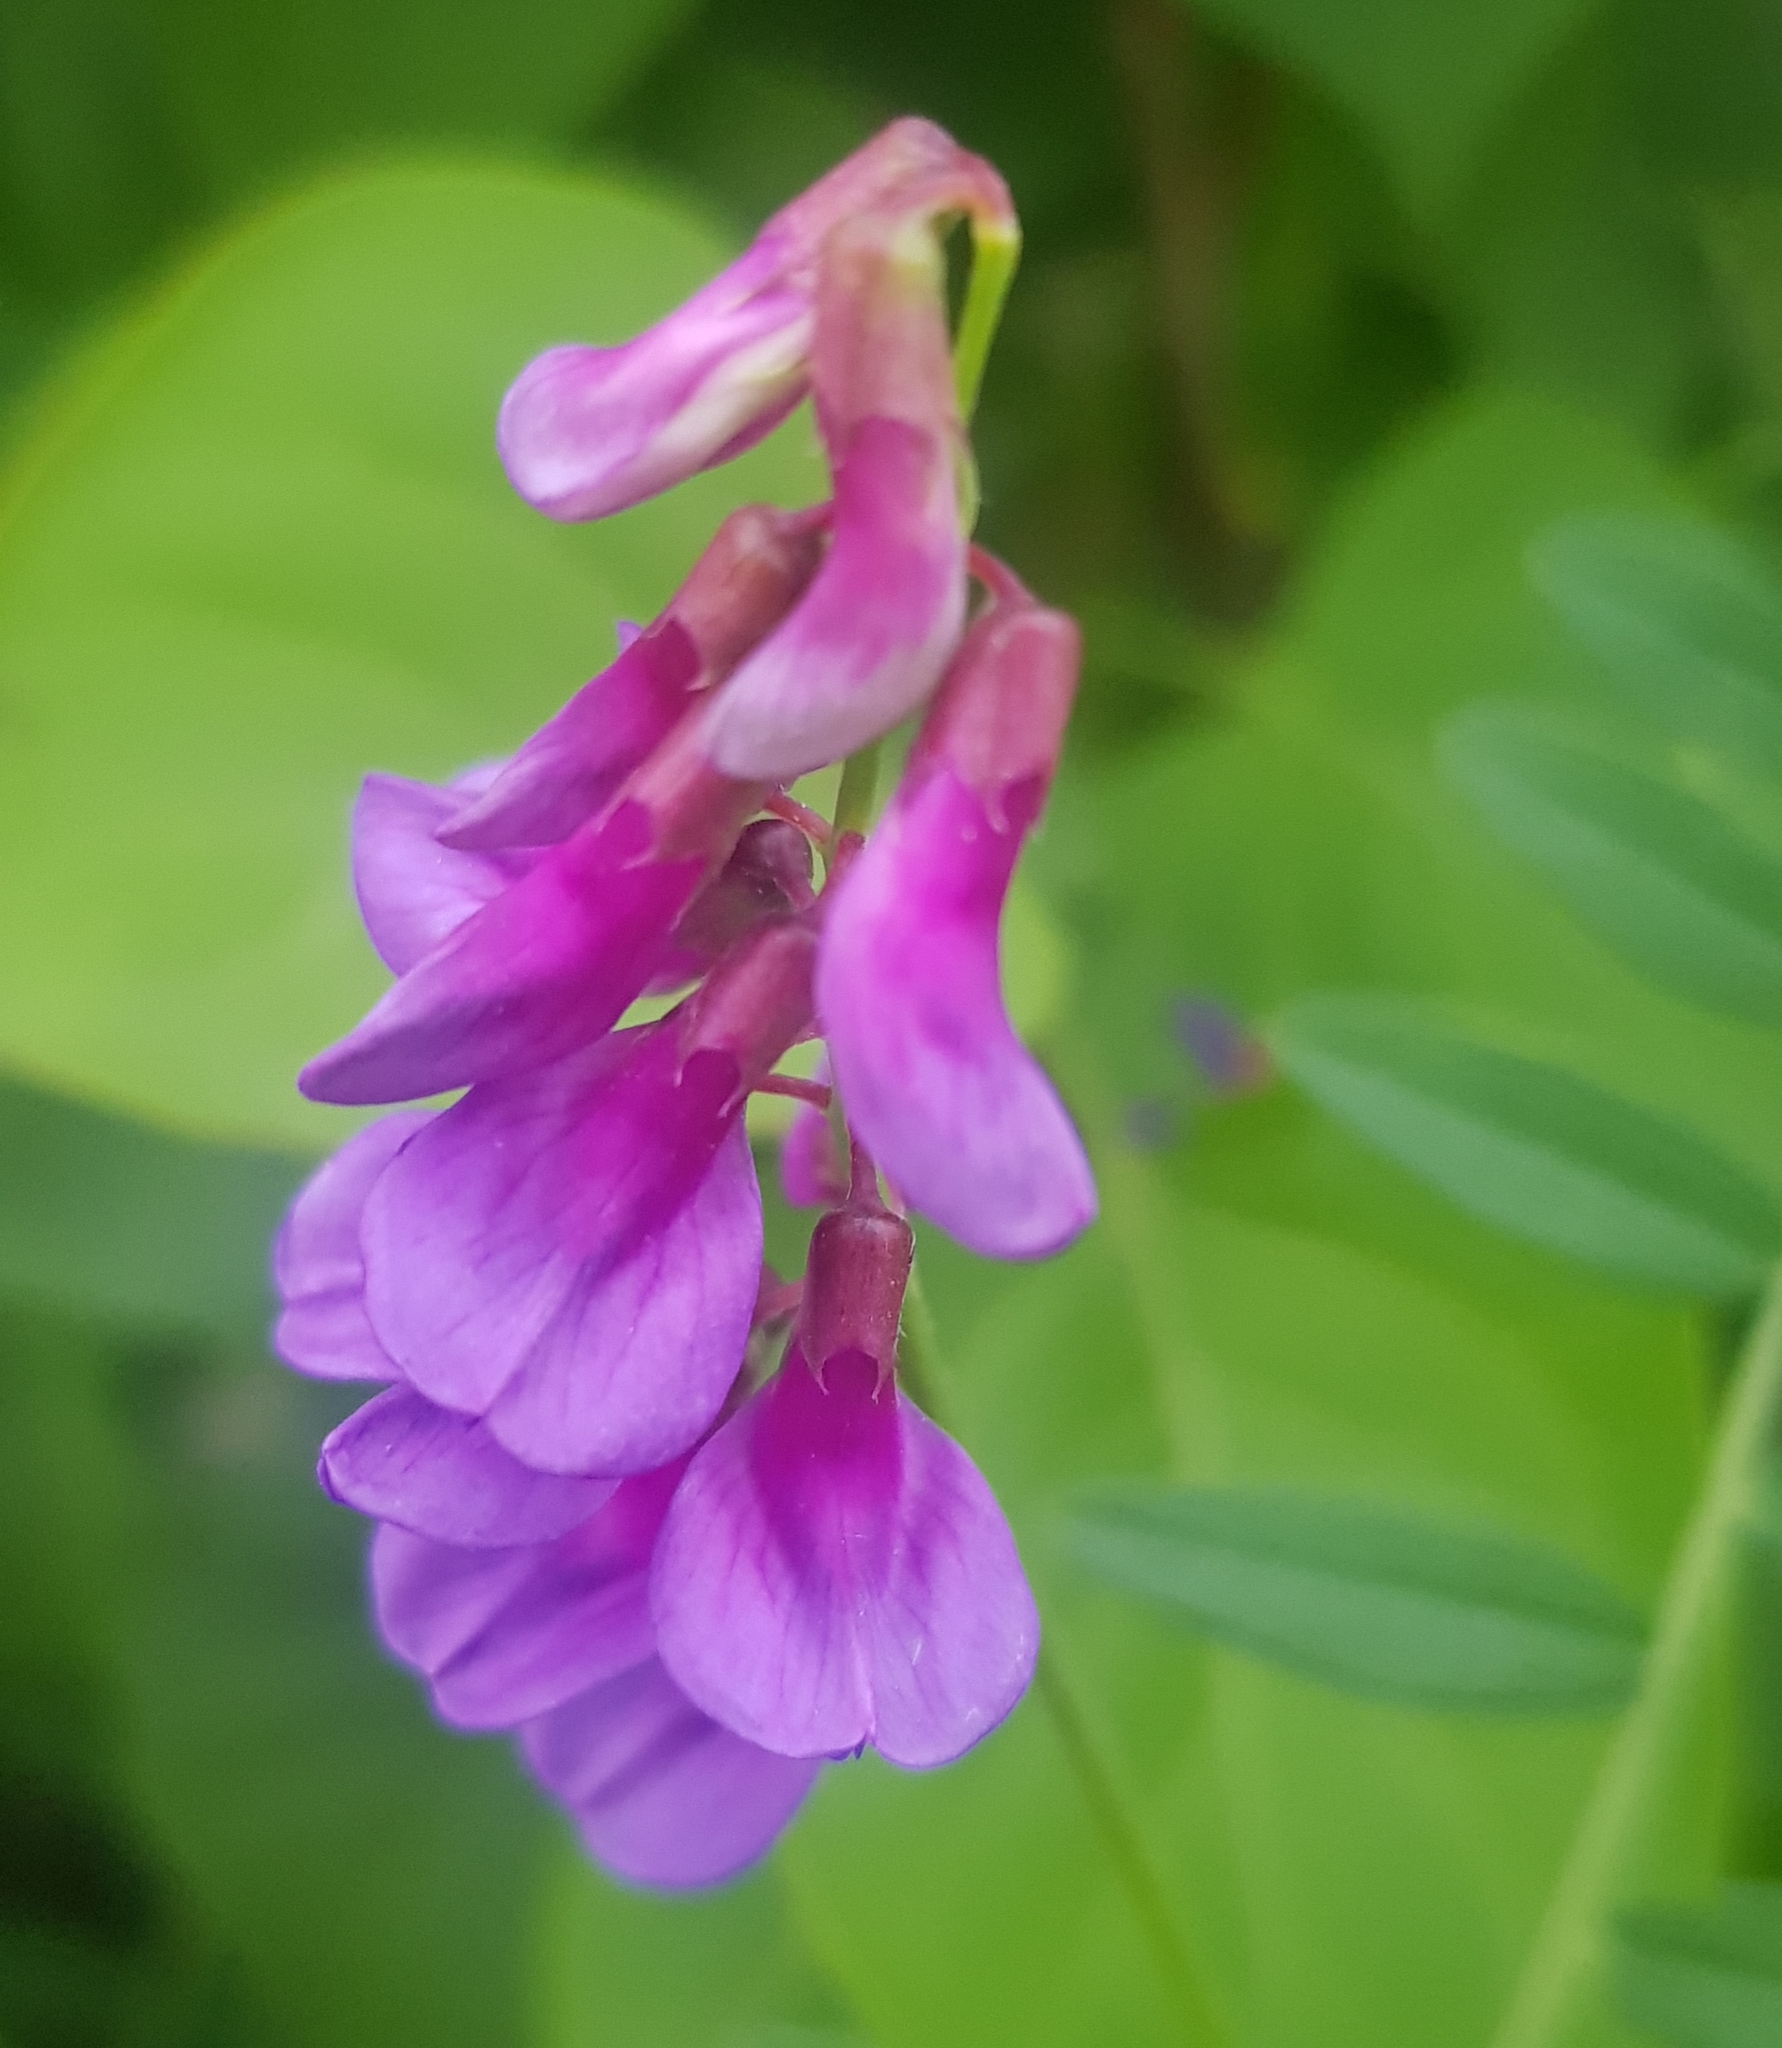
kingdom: Plantae
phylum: Tracheophyta
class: Magnoliopsida
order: Fabales
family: Fabaceae
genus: Vicia
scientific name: Vicia amoena
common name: Cheder ebs
